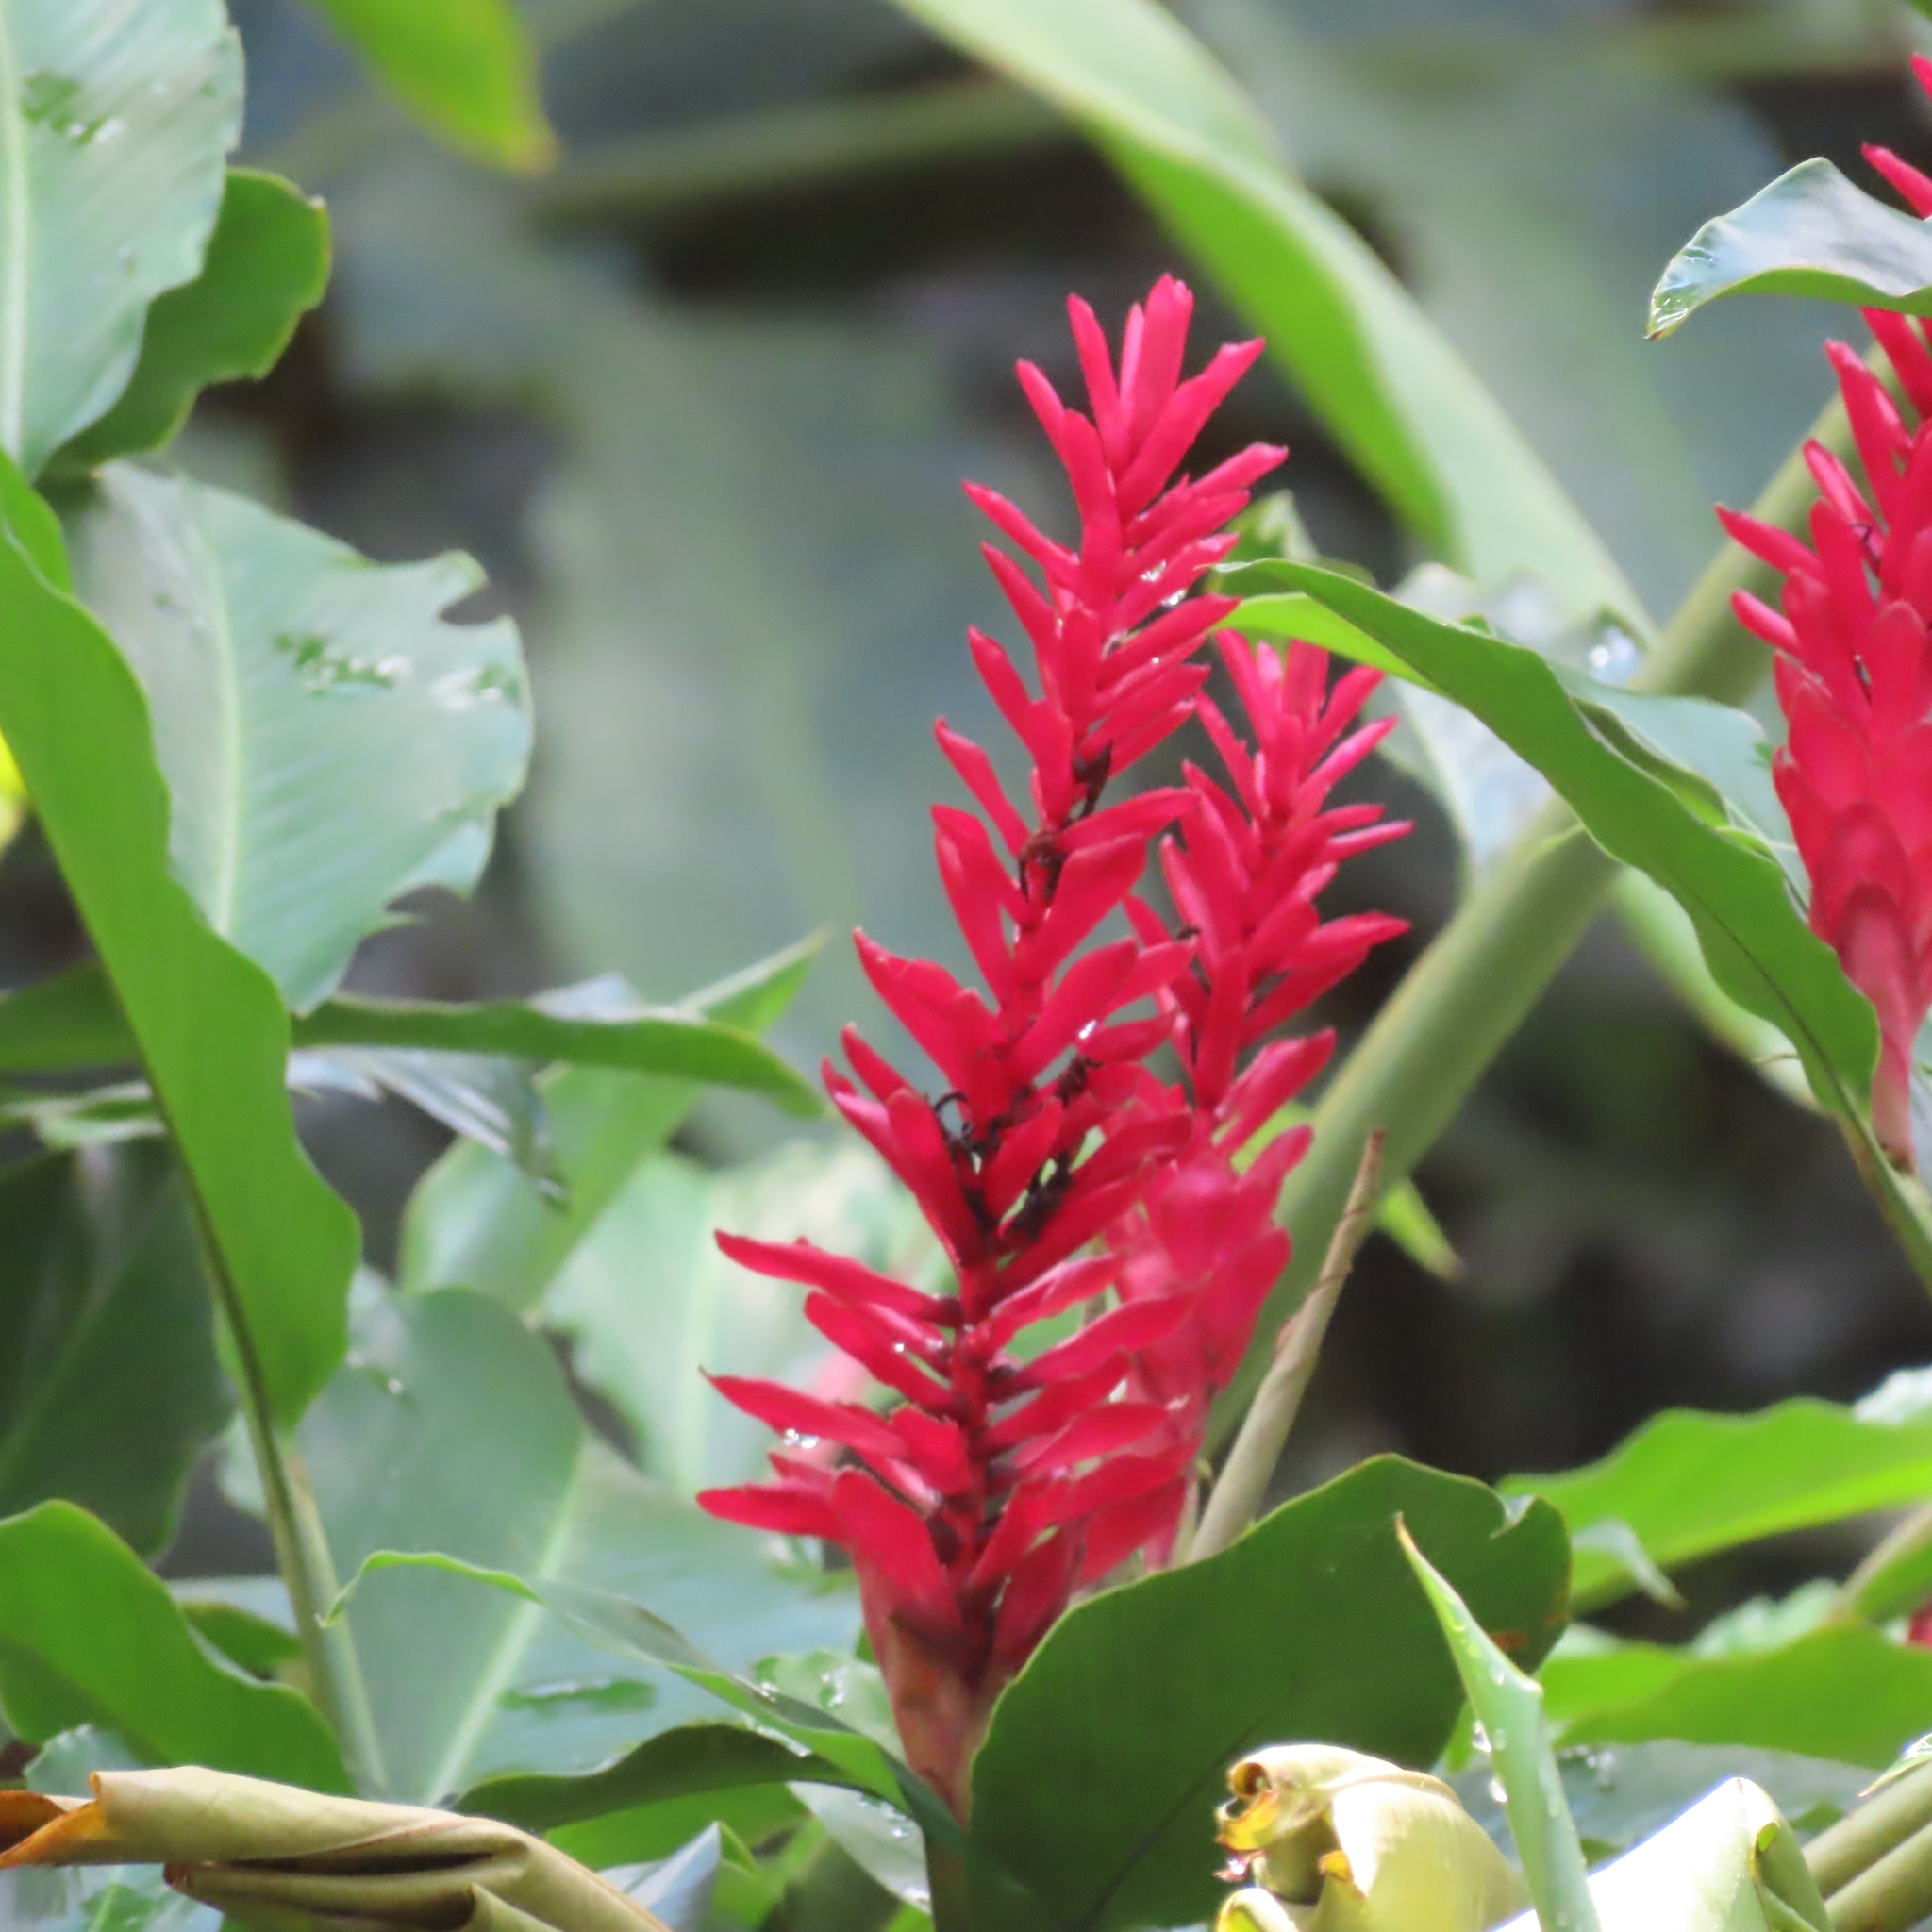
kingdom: Plantae
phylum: Tracheophyta
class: Liliopsida
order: Zingiberales
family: Zingiberaceae
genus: Alpinia
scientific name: Alpinia purpurata
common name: Red ginger
